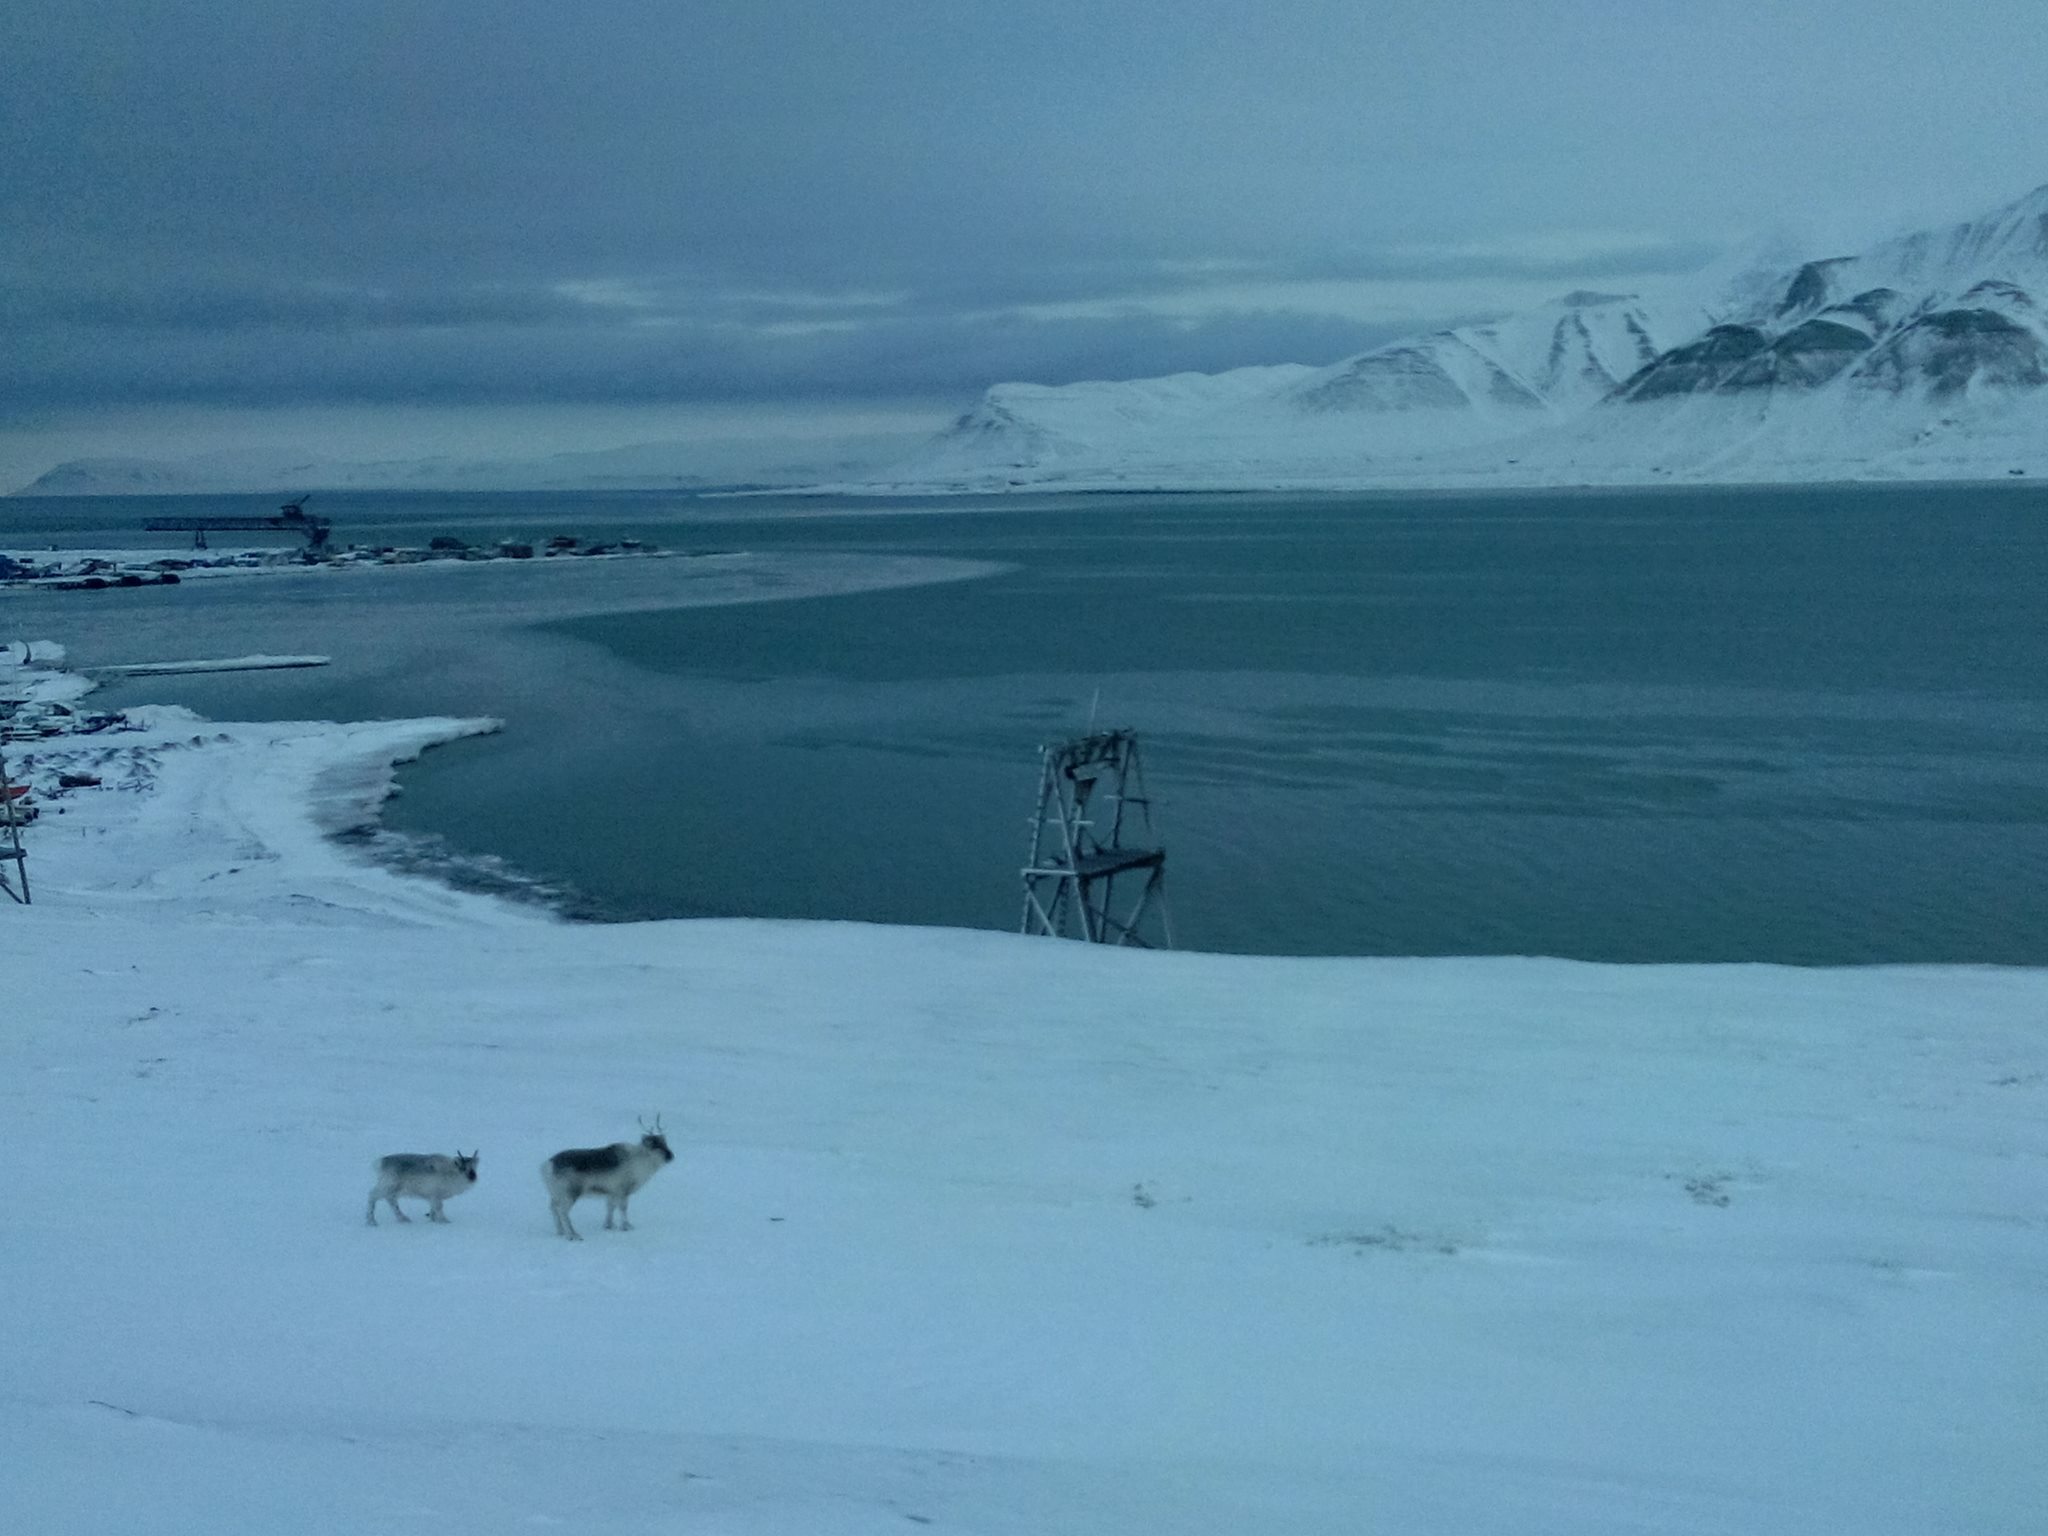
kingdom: Animalia
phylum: Chordata
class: Mammalia
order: Artiodactyla
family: Cervidae
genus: Rangifer
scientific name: Rangifer tarandus
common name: Reindeer
